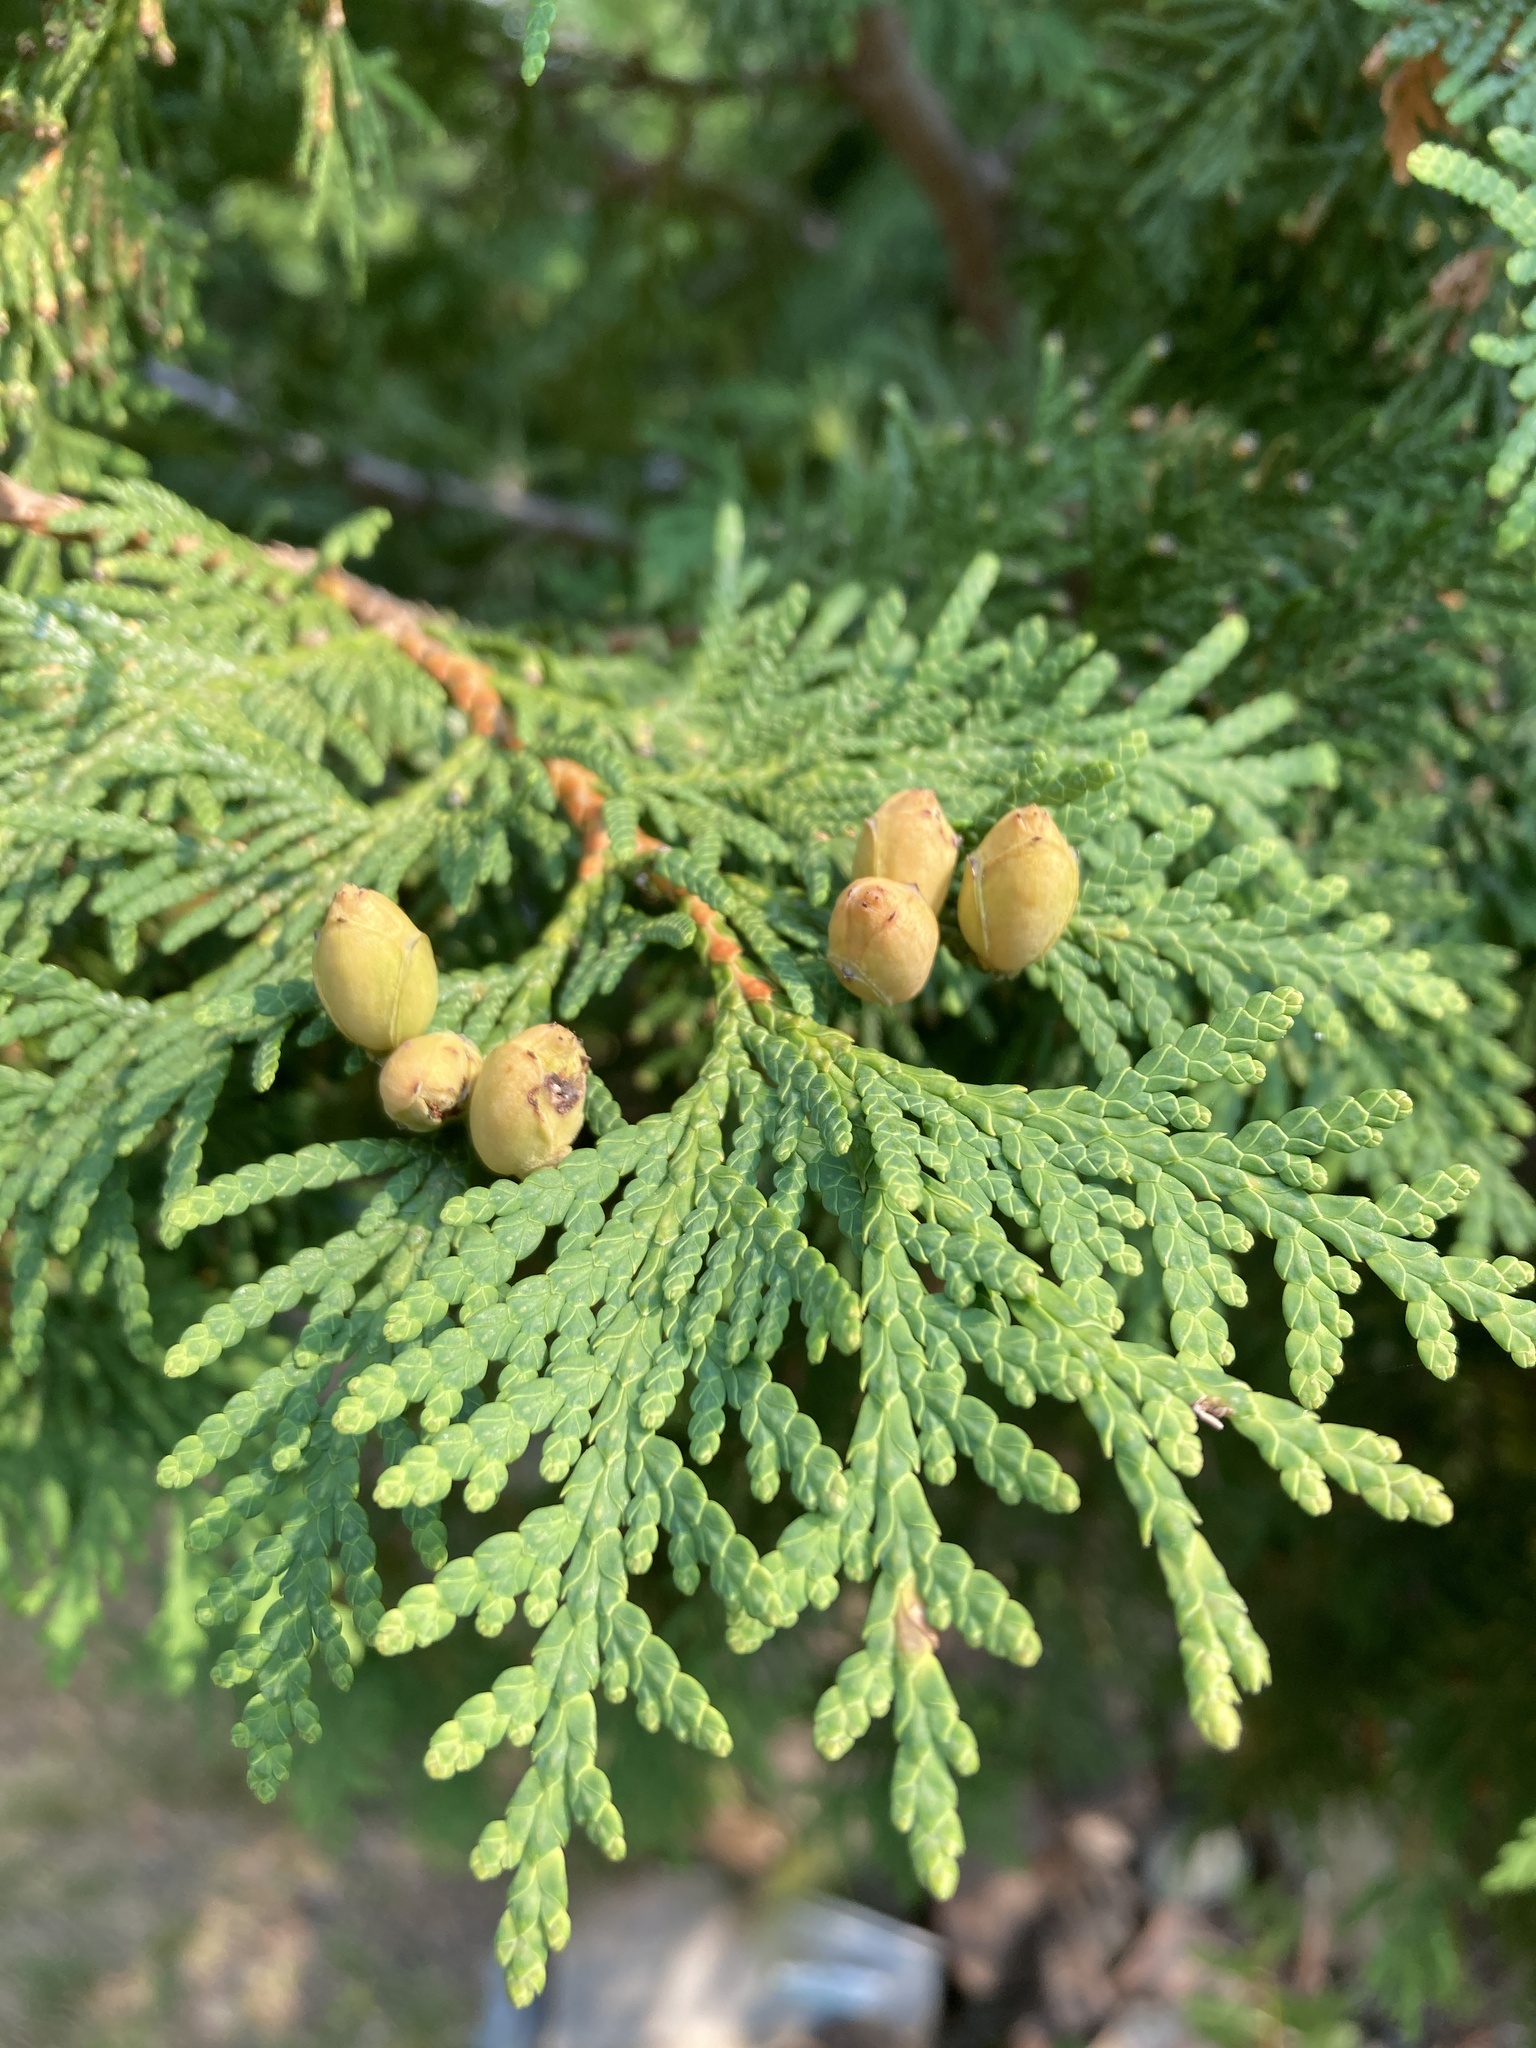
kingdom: Plantae
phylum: Tracheophyta
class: Pinopsida
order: Pinales
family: Cupressaceae
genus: Thuja
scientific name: Thuja occidentalis
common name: Northern white-cedar
